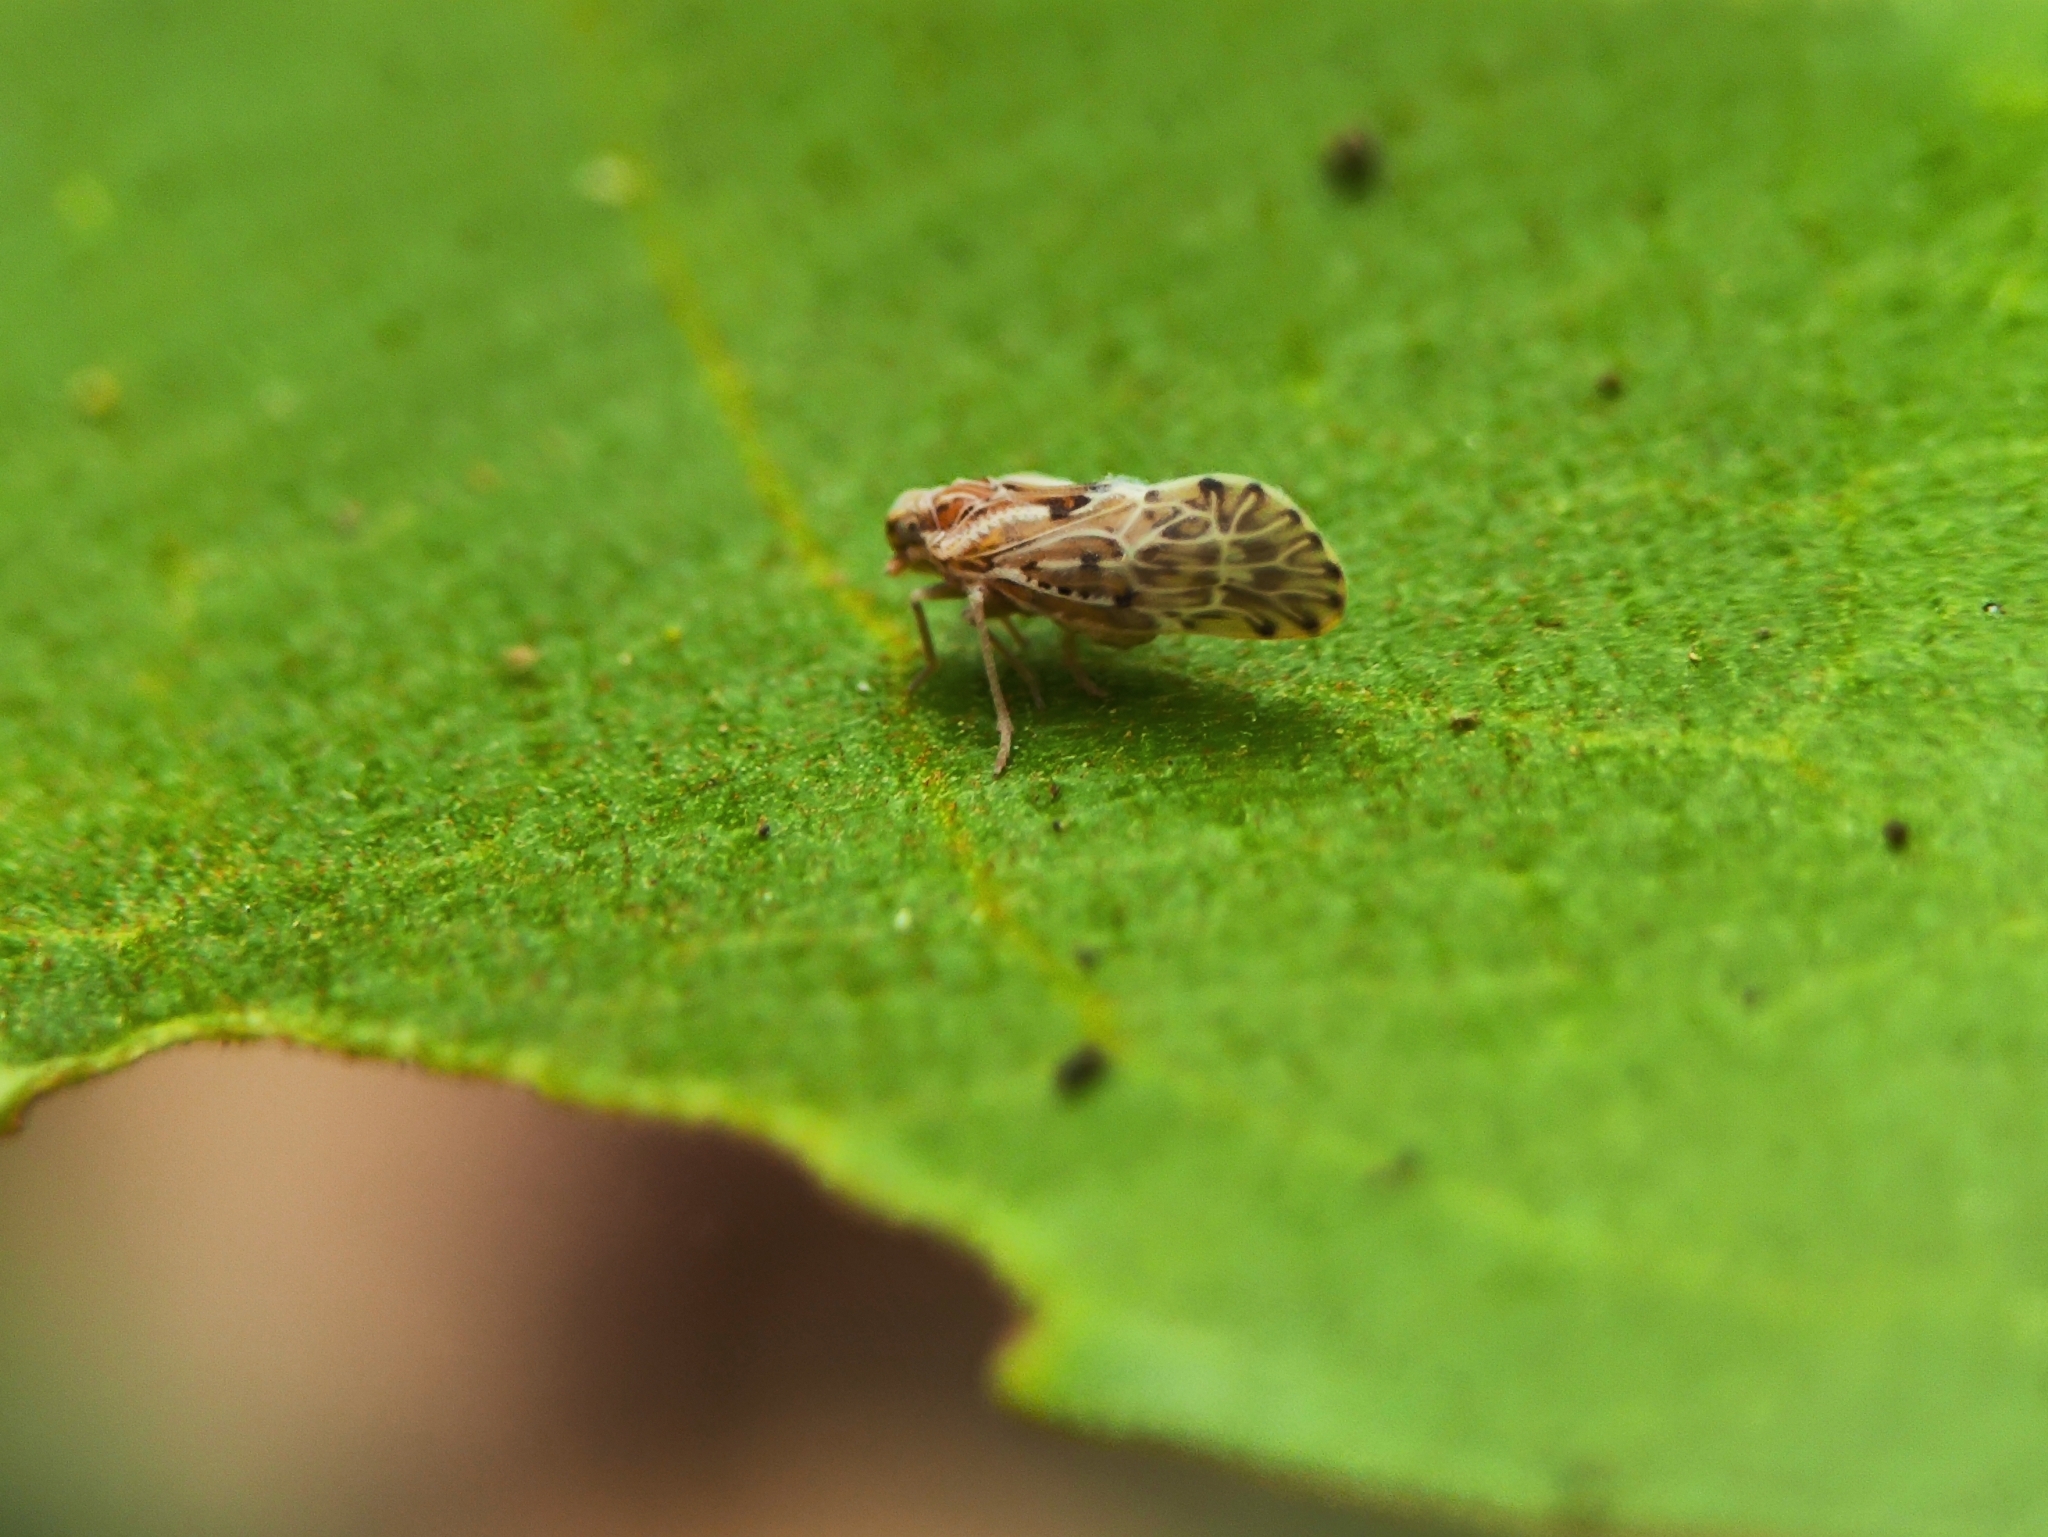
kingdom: Animalia
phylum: Arthropoda
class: Insecta
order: Hemiptera
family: Meenoplidae
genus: Kermesia
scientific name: Kermesia nigropunctata
